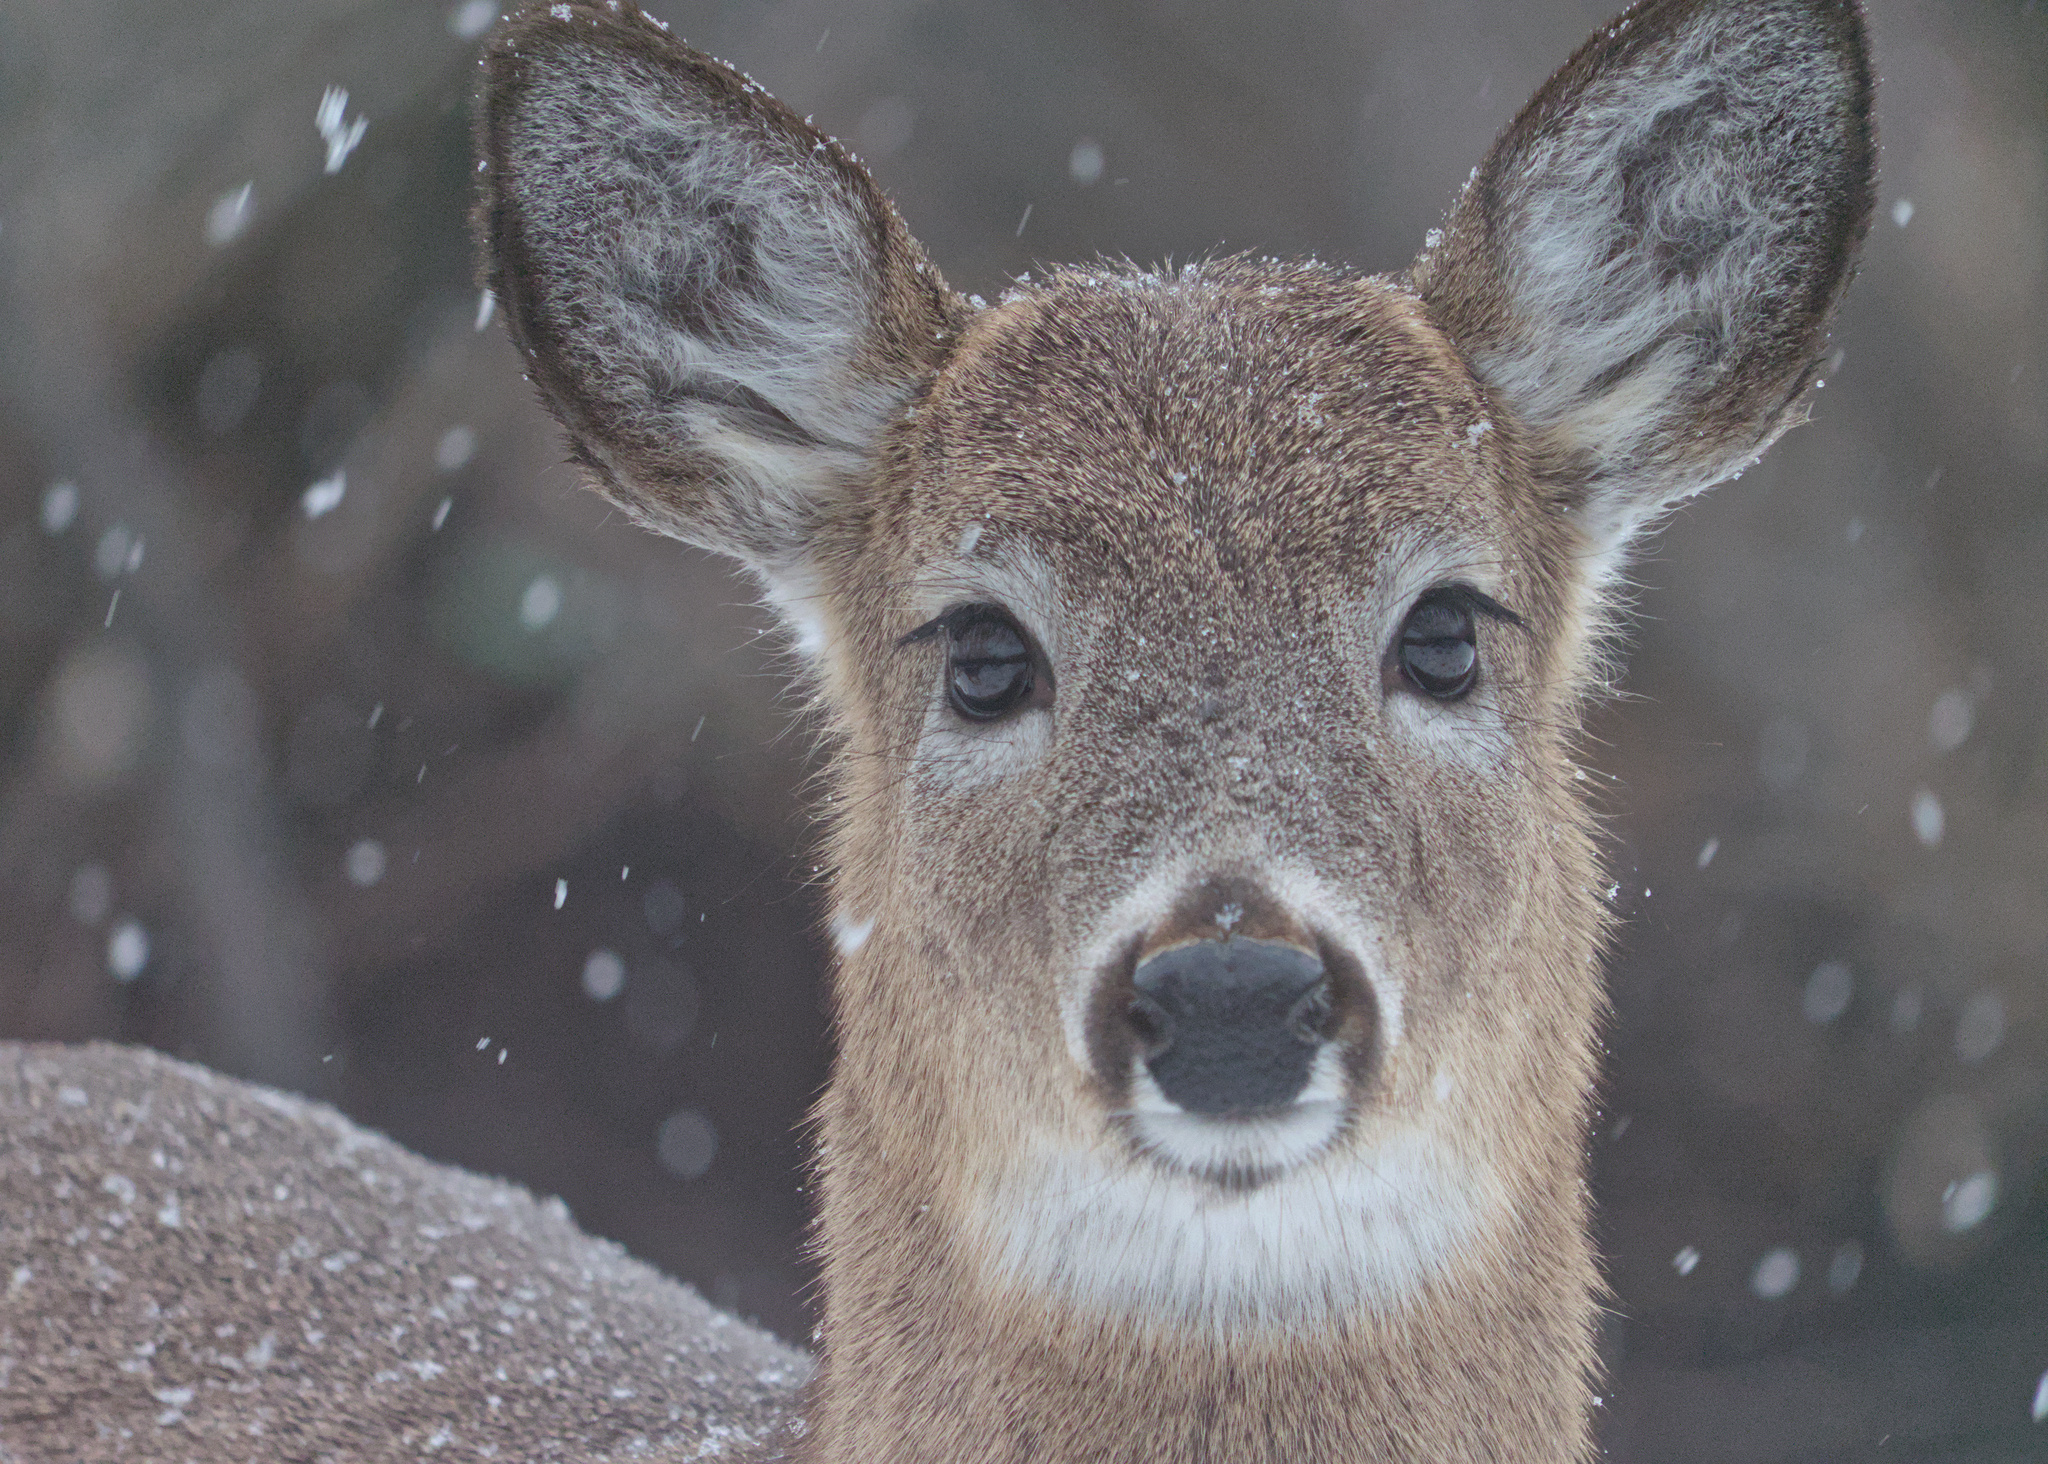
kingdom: Animalia
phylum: Chordata
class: Mammalia
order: Artiodactyla
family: Cervidae
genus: Odocoileus
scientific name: Odocoileus virginianus
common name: White-tailed deer
